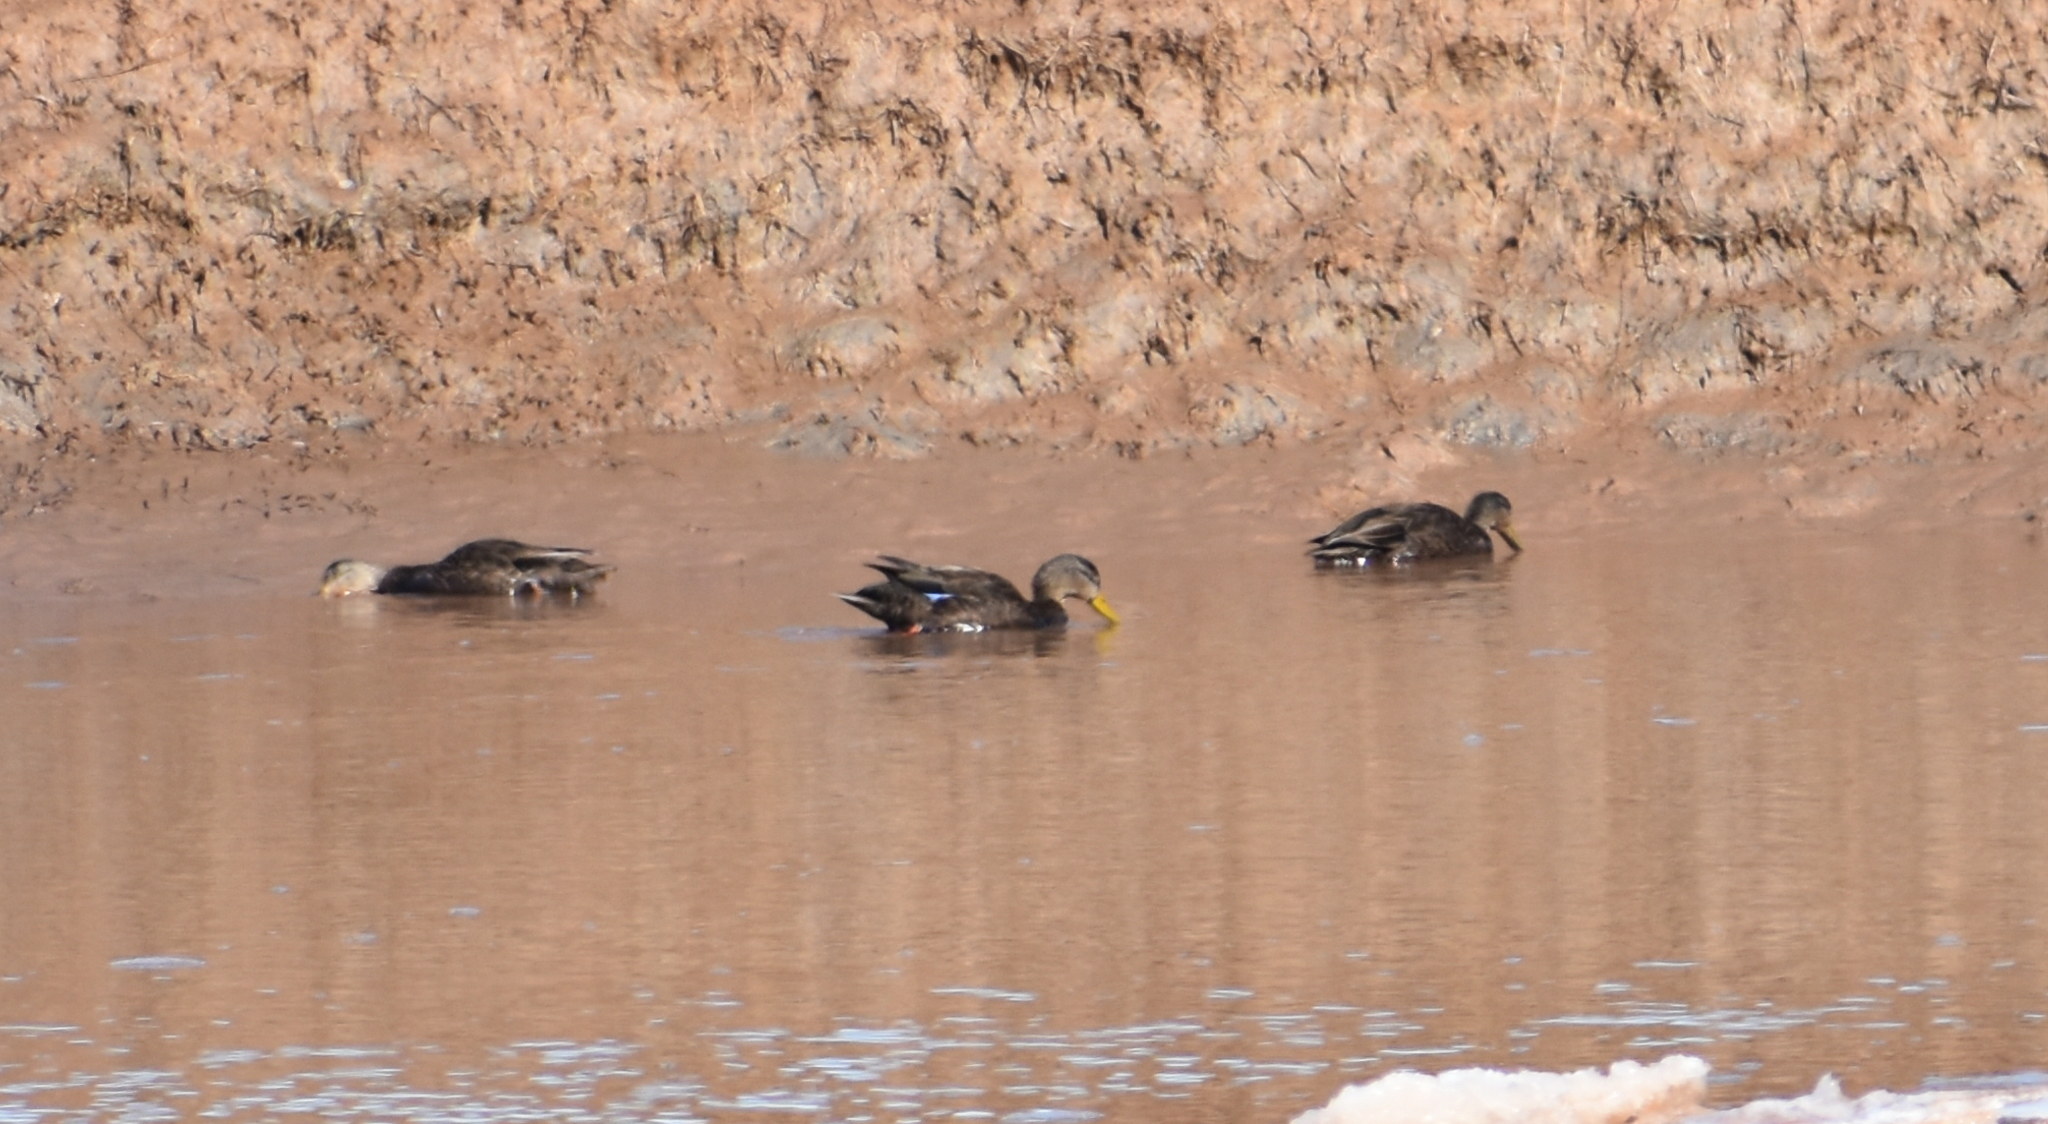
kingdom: Animalia
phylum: Chordata
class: Aves
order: Anseriformes
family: Anatidae
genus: Anas
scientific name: Anas rubripes
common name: American black duck
